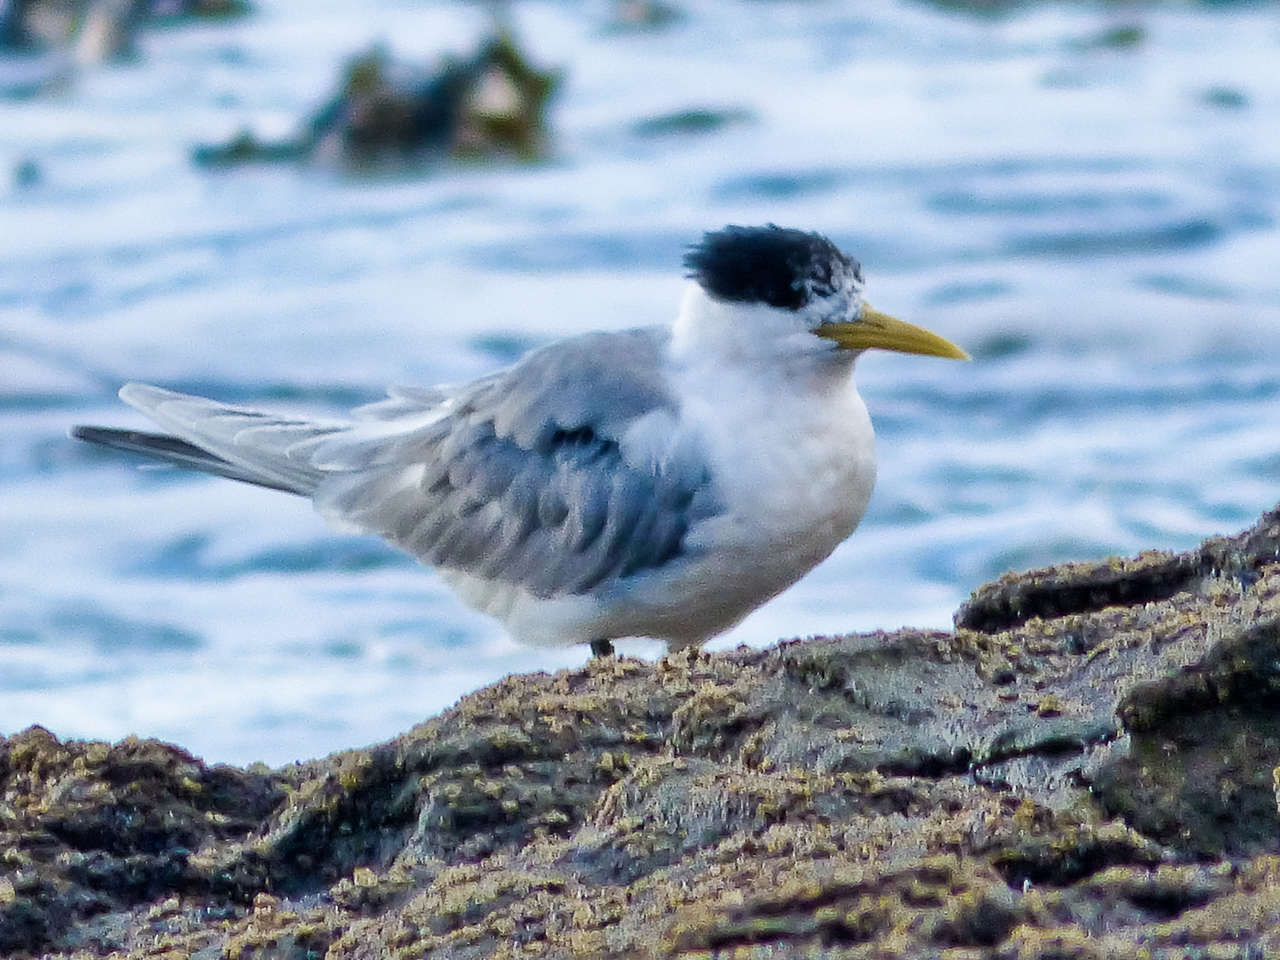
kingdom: Animalia
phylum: Chordata
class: Aves
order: Charadriiformes
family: Laridae
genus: Thalasseus
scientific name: Thalasseus bergii
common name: Greater crested tern
